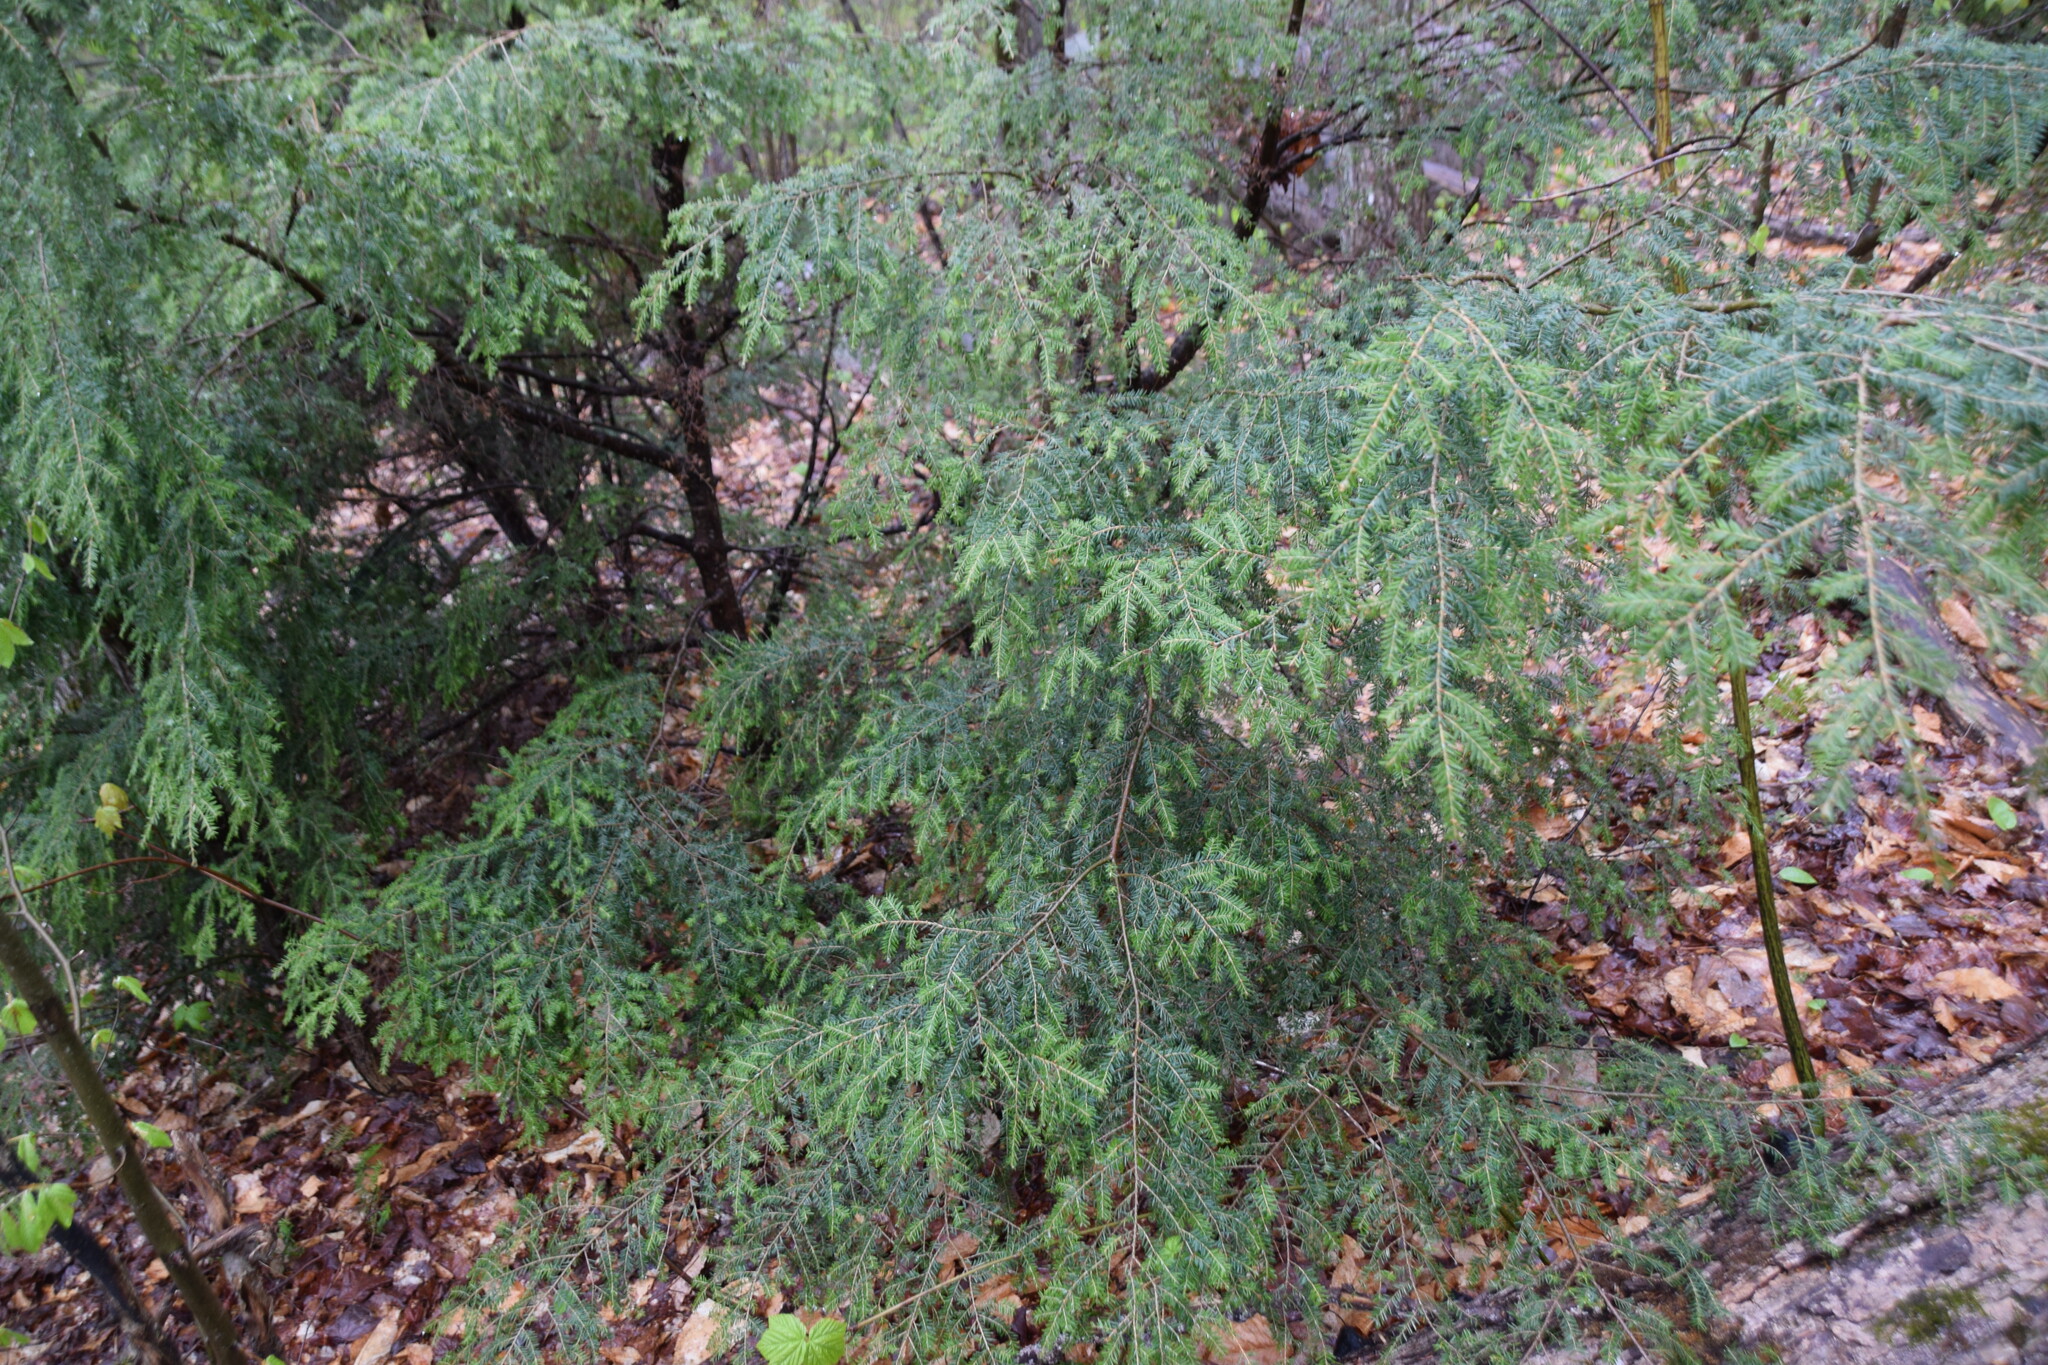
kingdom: Plantae
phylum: Tracheophyta
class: Pinopsida
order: Pinales
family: Pinaceae
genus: Tsuga
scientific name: Tsuga canadensis
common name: Eastern hemlock
